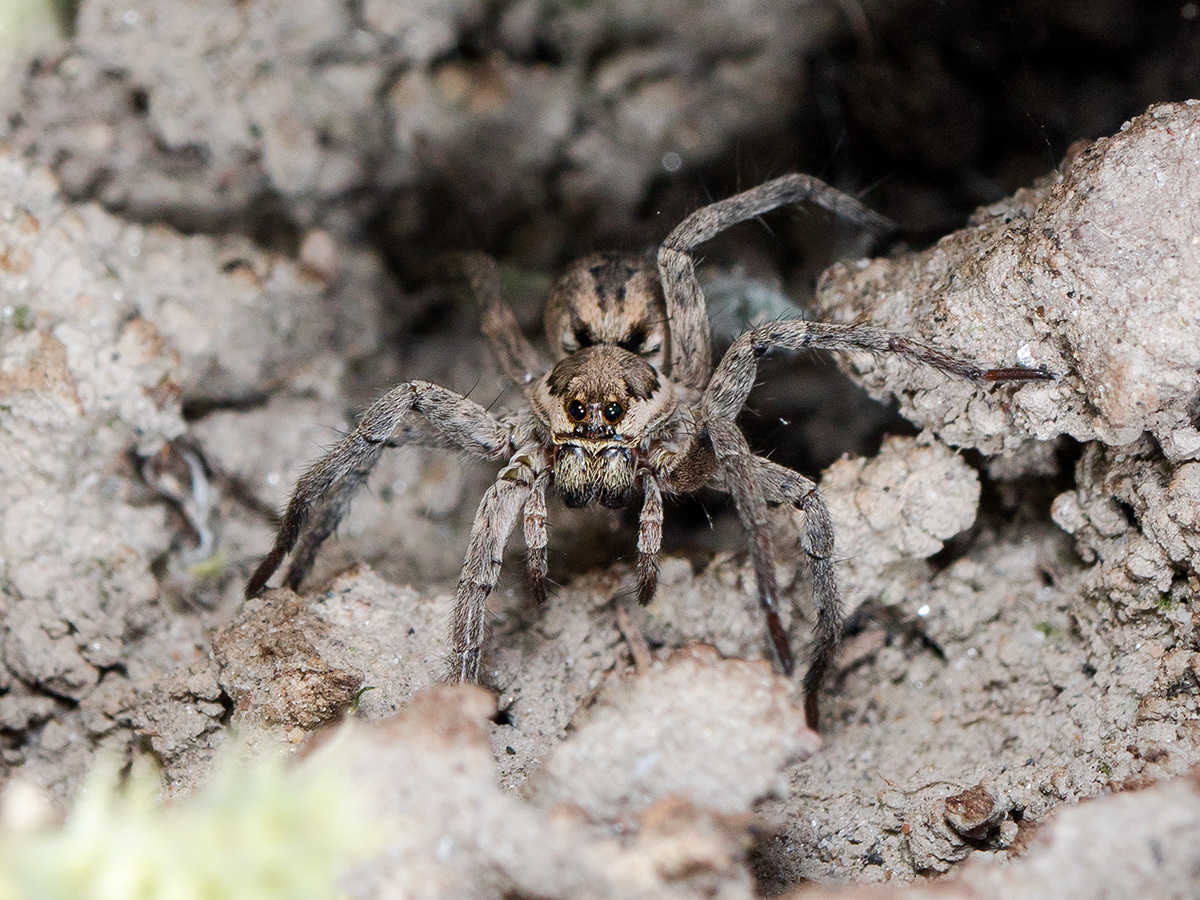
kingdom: Animalia
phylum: Arthropoda
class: Arachnida
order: Araneae
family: Lycosidae
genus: Lycosa
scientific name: Lycosa praegrandis
